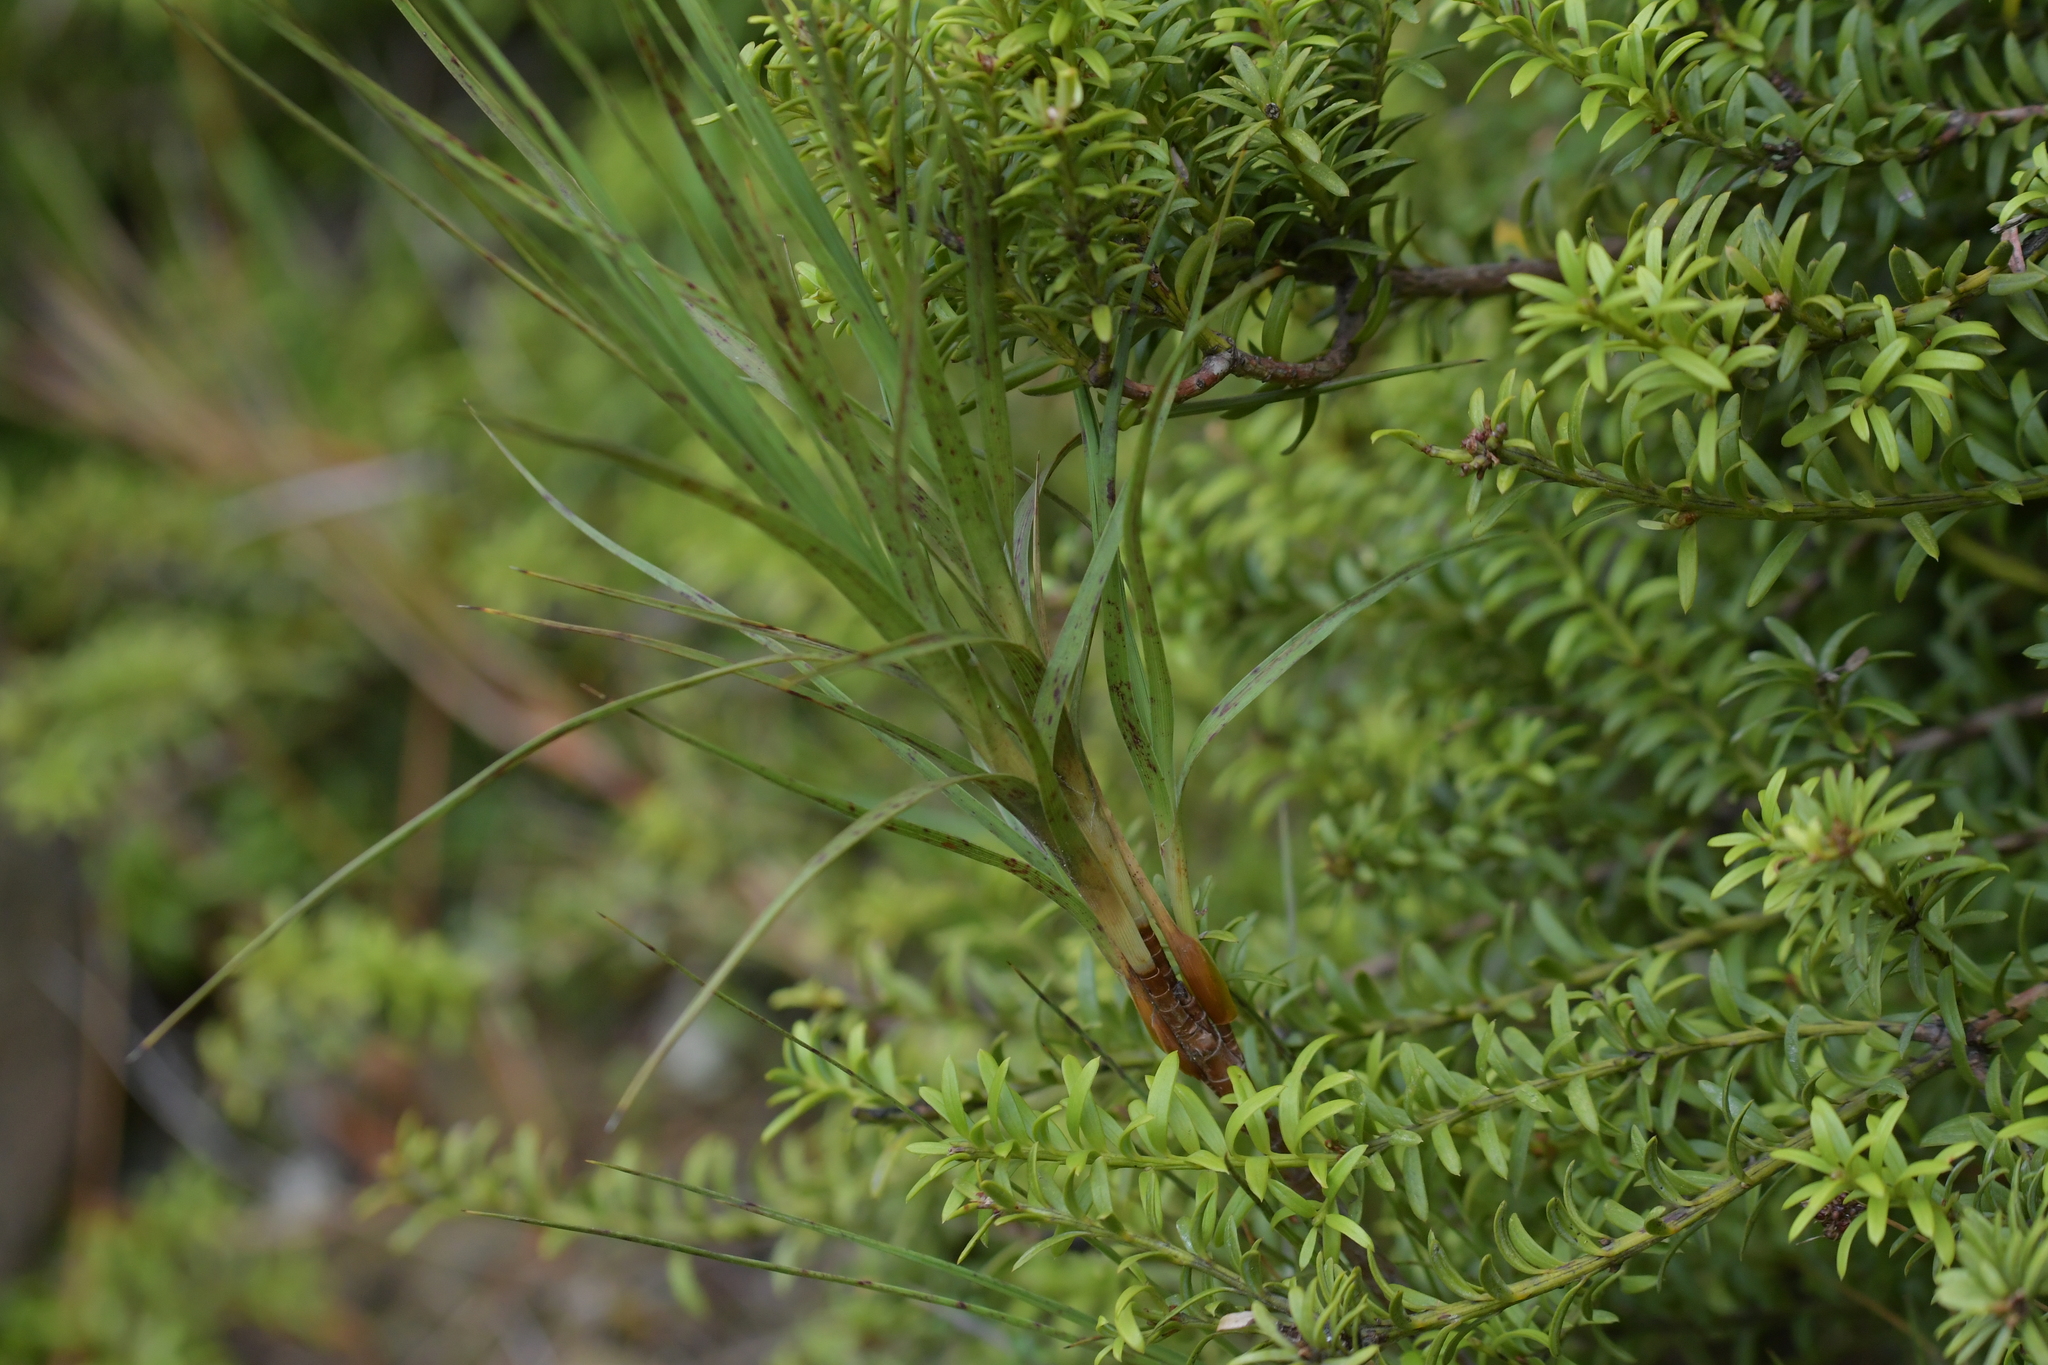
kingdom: Plantae
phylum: Tracheophyta
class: Magnoliopsida
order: Ericales
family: Ericaceae
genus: Dracophyllum
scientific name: Dracophyllum longifolium
